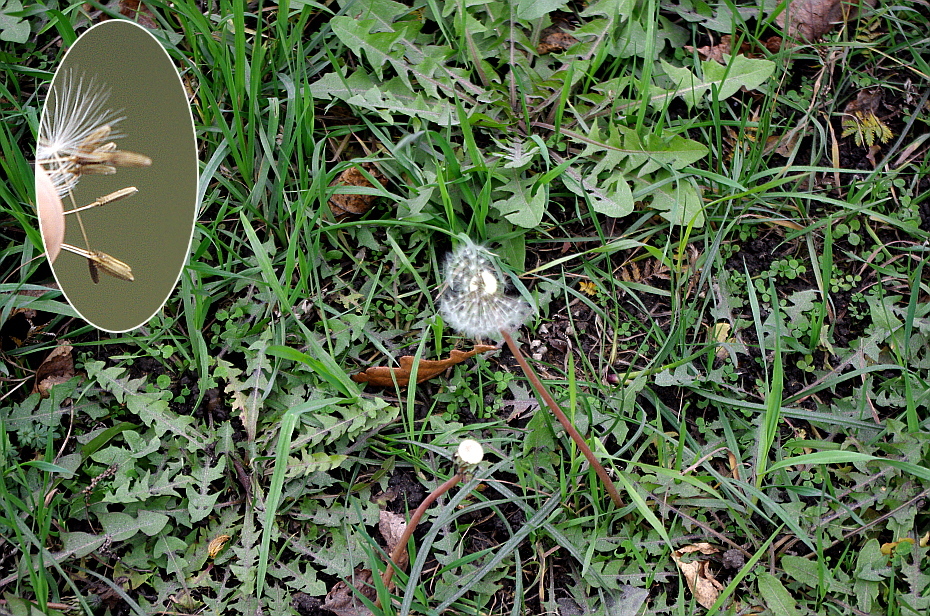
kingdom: Plantae
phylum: Tracheophyta
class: Magnoliopsida
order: Asterales
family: Asteraceae
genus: Taraxacum
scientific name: Taraxacum officinale
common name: Common dandelion
